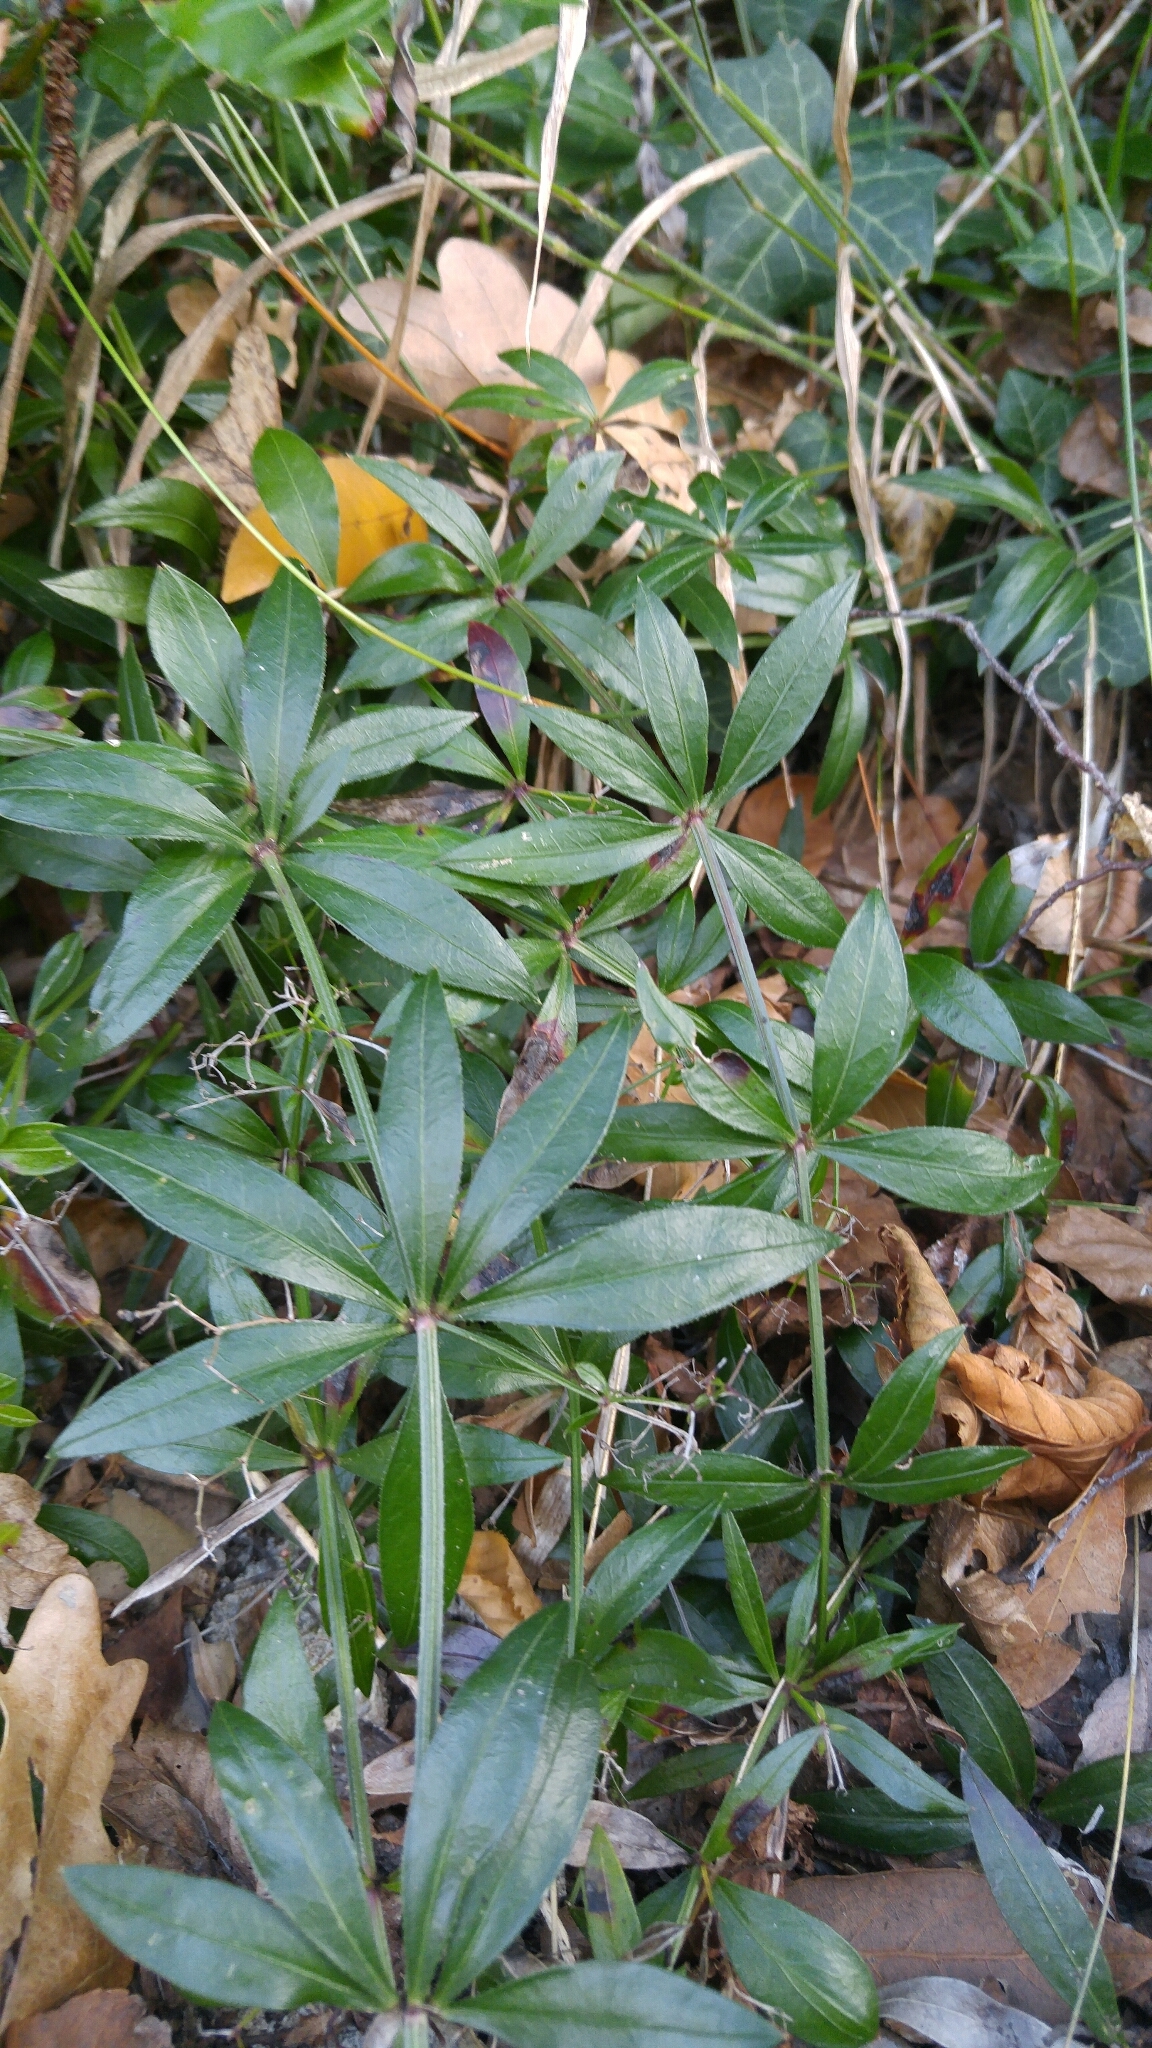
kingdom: Plantae
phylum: Tracheophyta
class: Magnoliopsida
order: Gentianales
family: Rubiaceae
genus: Rubia
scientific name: Rubia peregrina
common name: Wild madder
